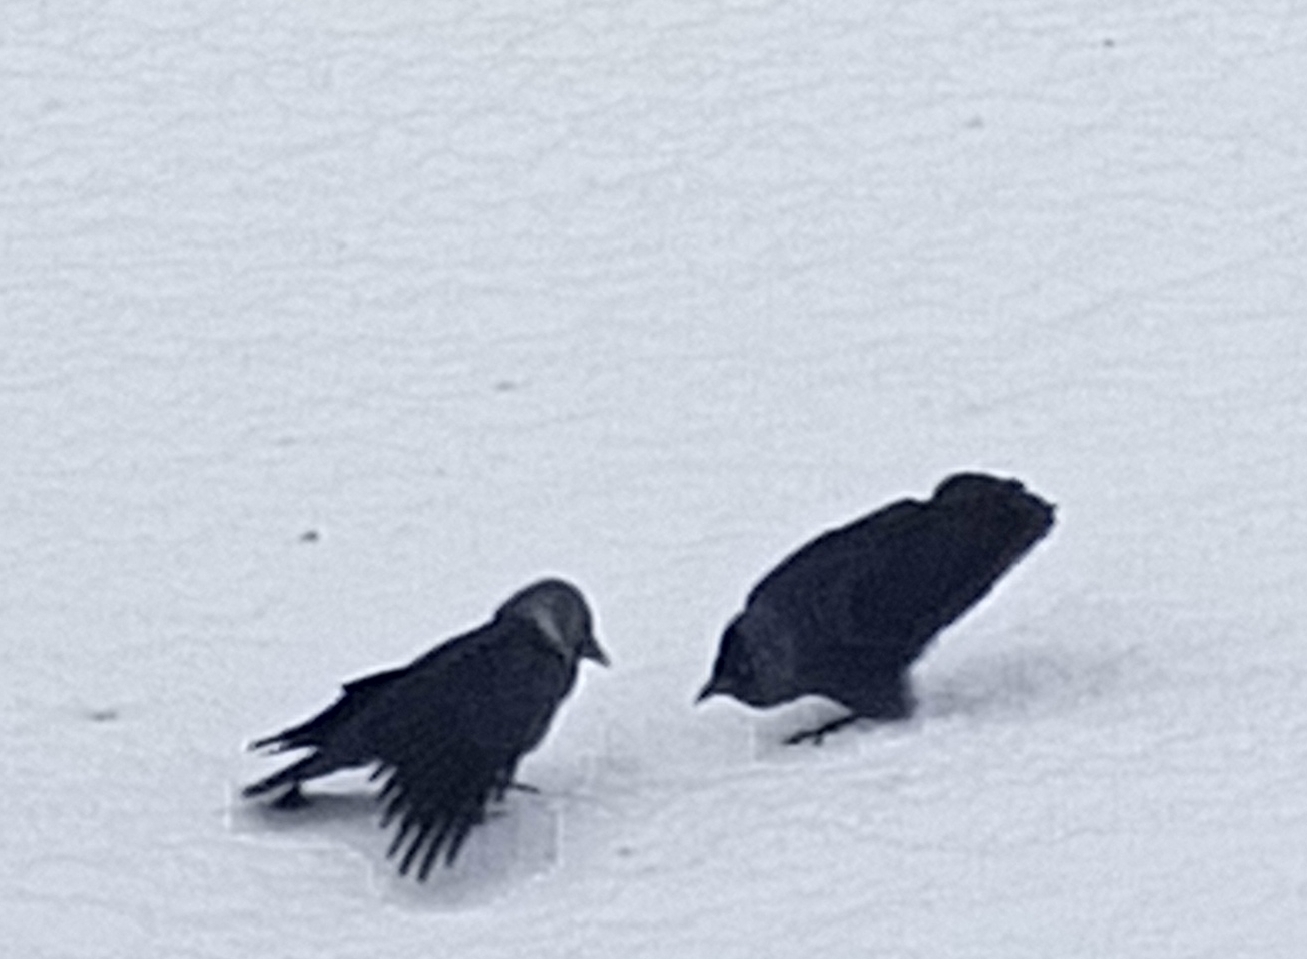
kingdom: Animalia
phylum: Chordata
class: Aves
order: Passeriformes
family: Corvidae
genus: Coloeus
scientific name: Coloeus monedula
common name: Western jackdaw
